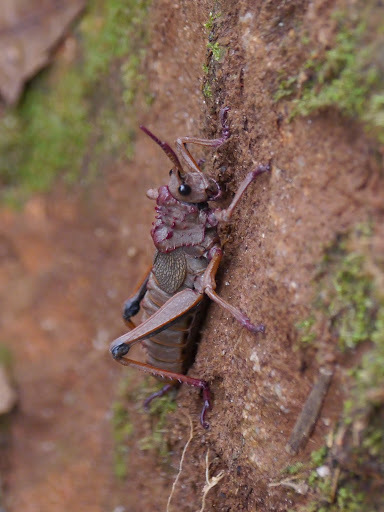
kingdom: Animalia
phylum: Arthropoda
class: Insecta
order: Orthoptera
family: Pyrgomorphidae
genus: Parapetasia
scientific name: Parapetasia femorata
